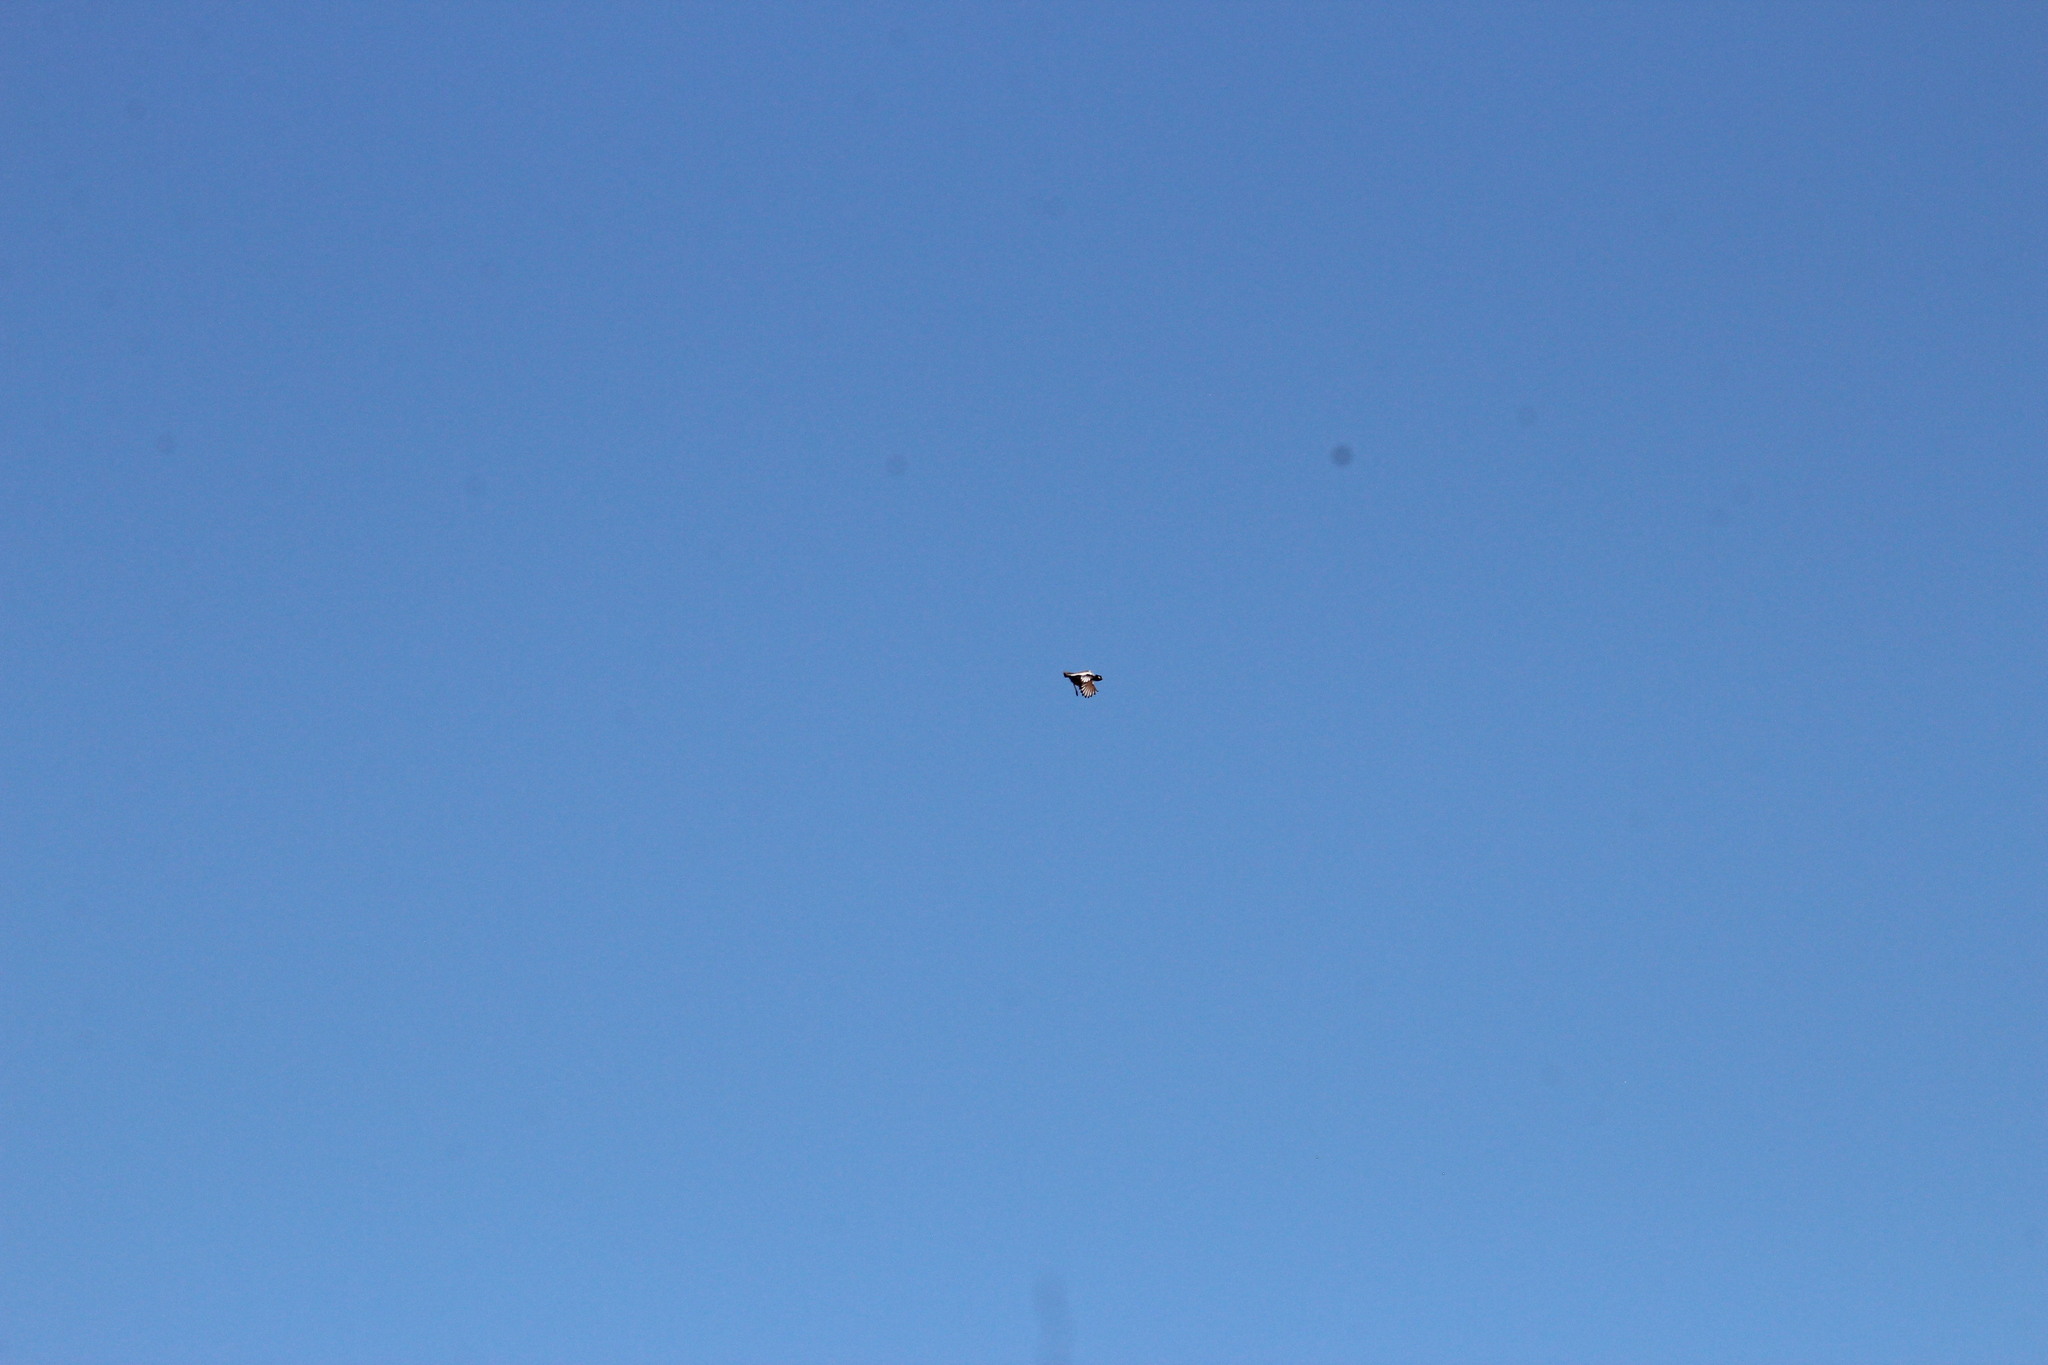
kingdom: Animalia
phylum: Chordata
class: Aves
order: Otidiformes
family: Otididae
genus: Afrotis
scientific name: Afrotis afraoides
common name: Northern black korhaan
